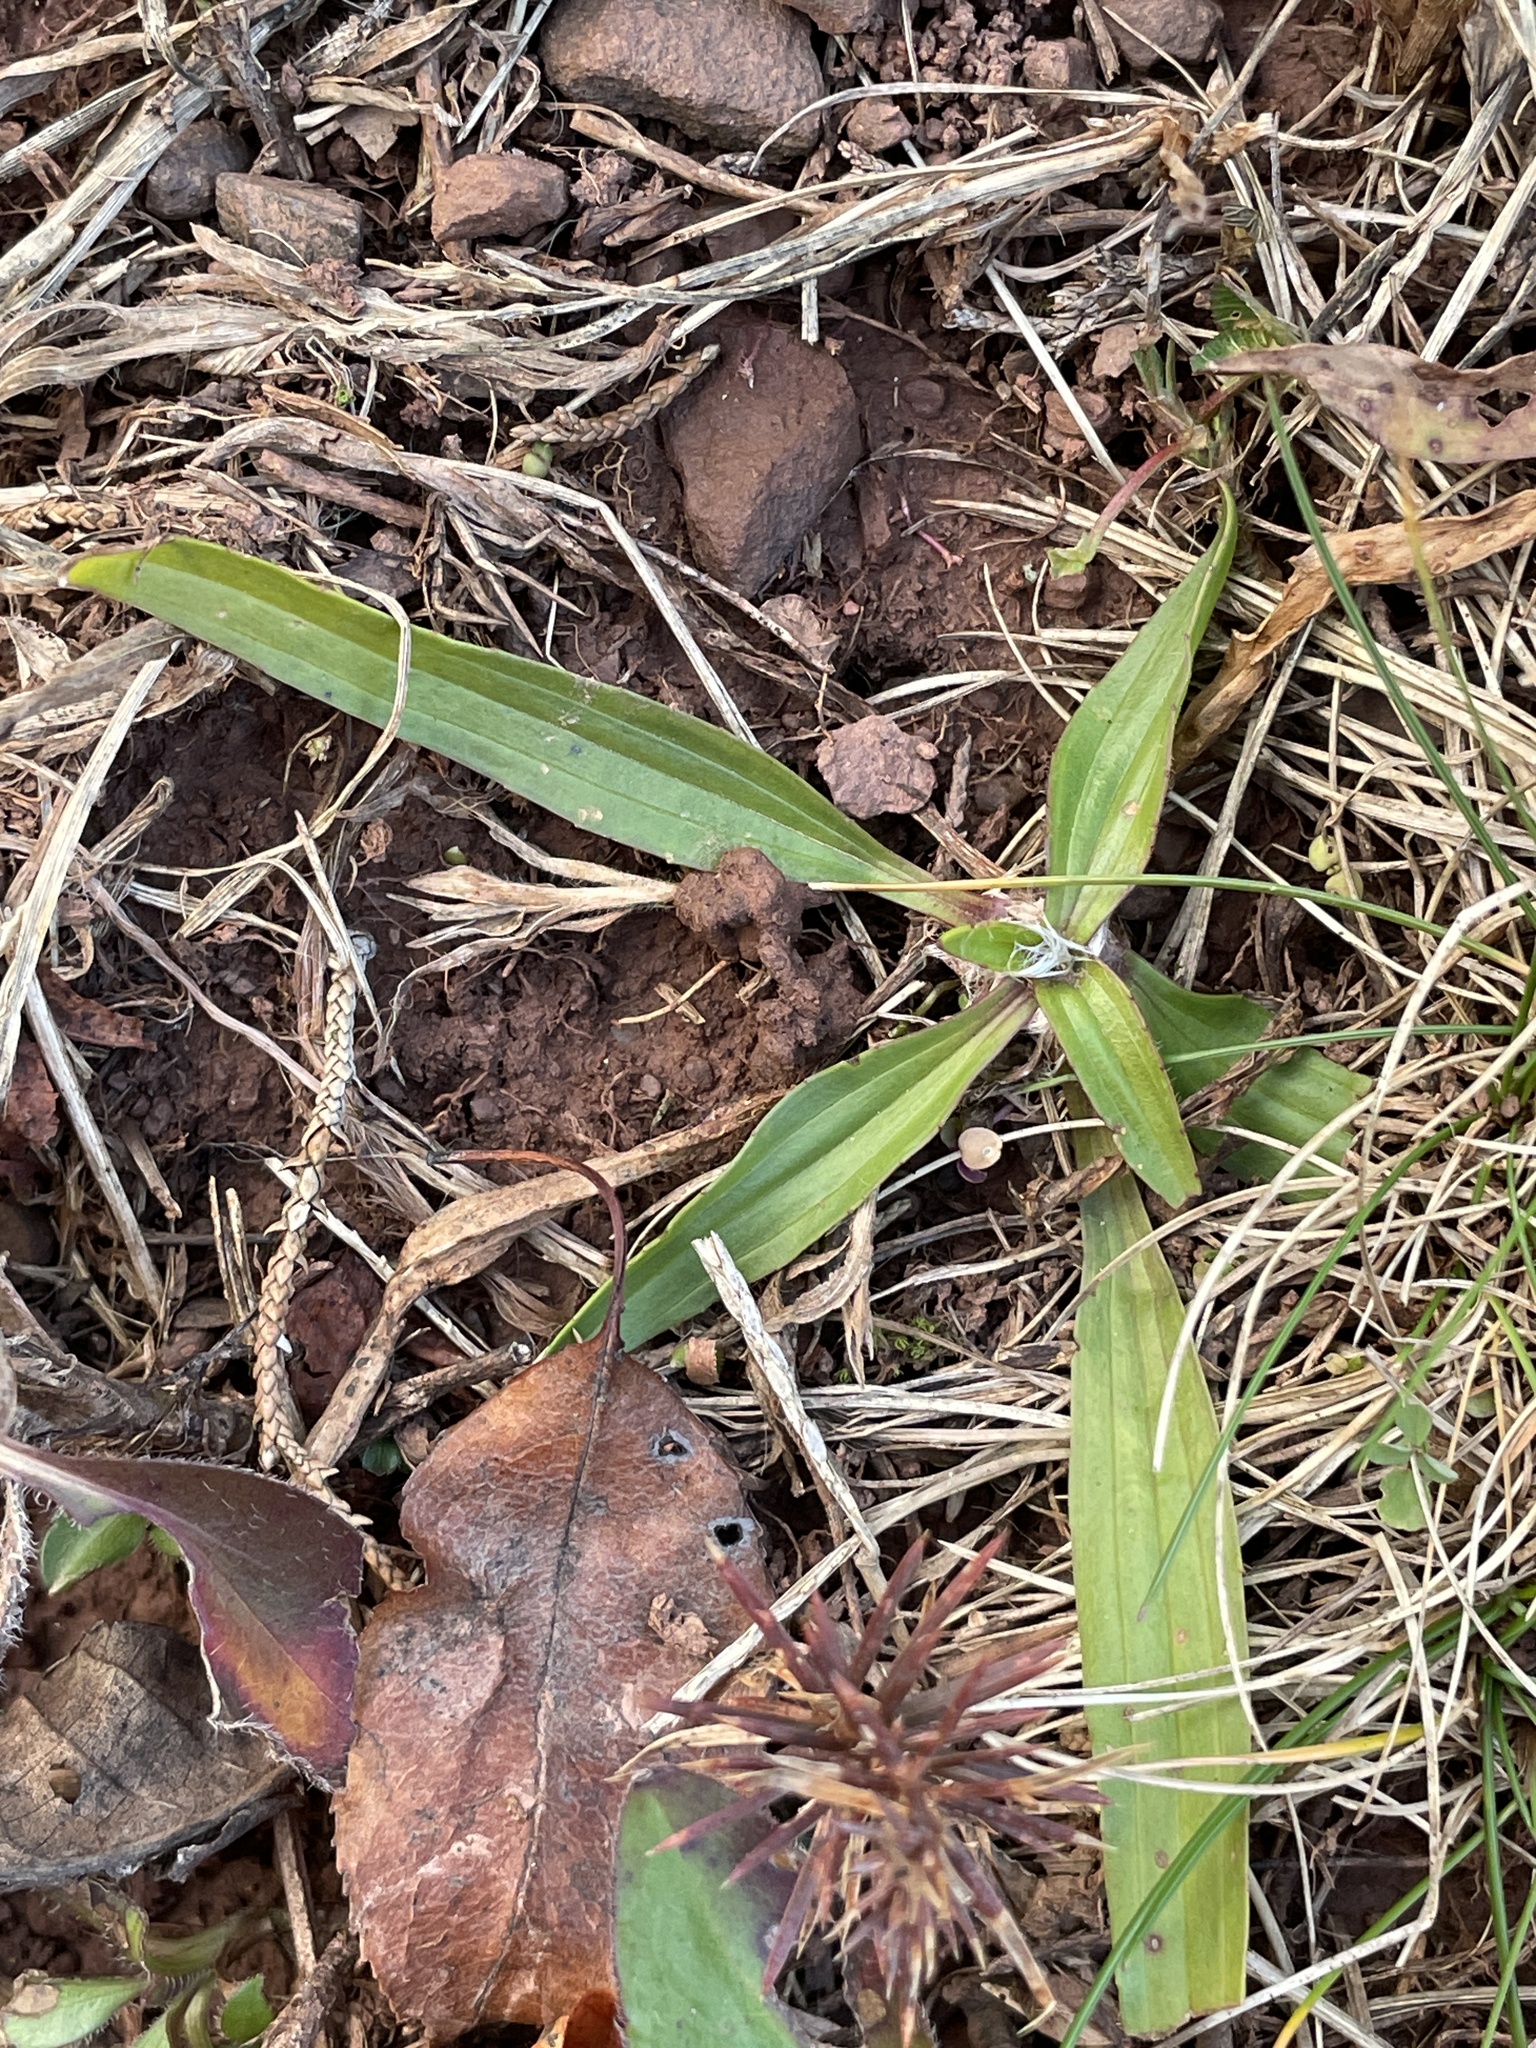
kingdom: Plantae
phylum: Tracheophyta
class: Magnoliopsida
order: Lamiales
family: Plantaginaceae
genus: Plantago
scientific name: Plantago lanceolata
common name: Ribwort plantain
